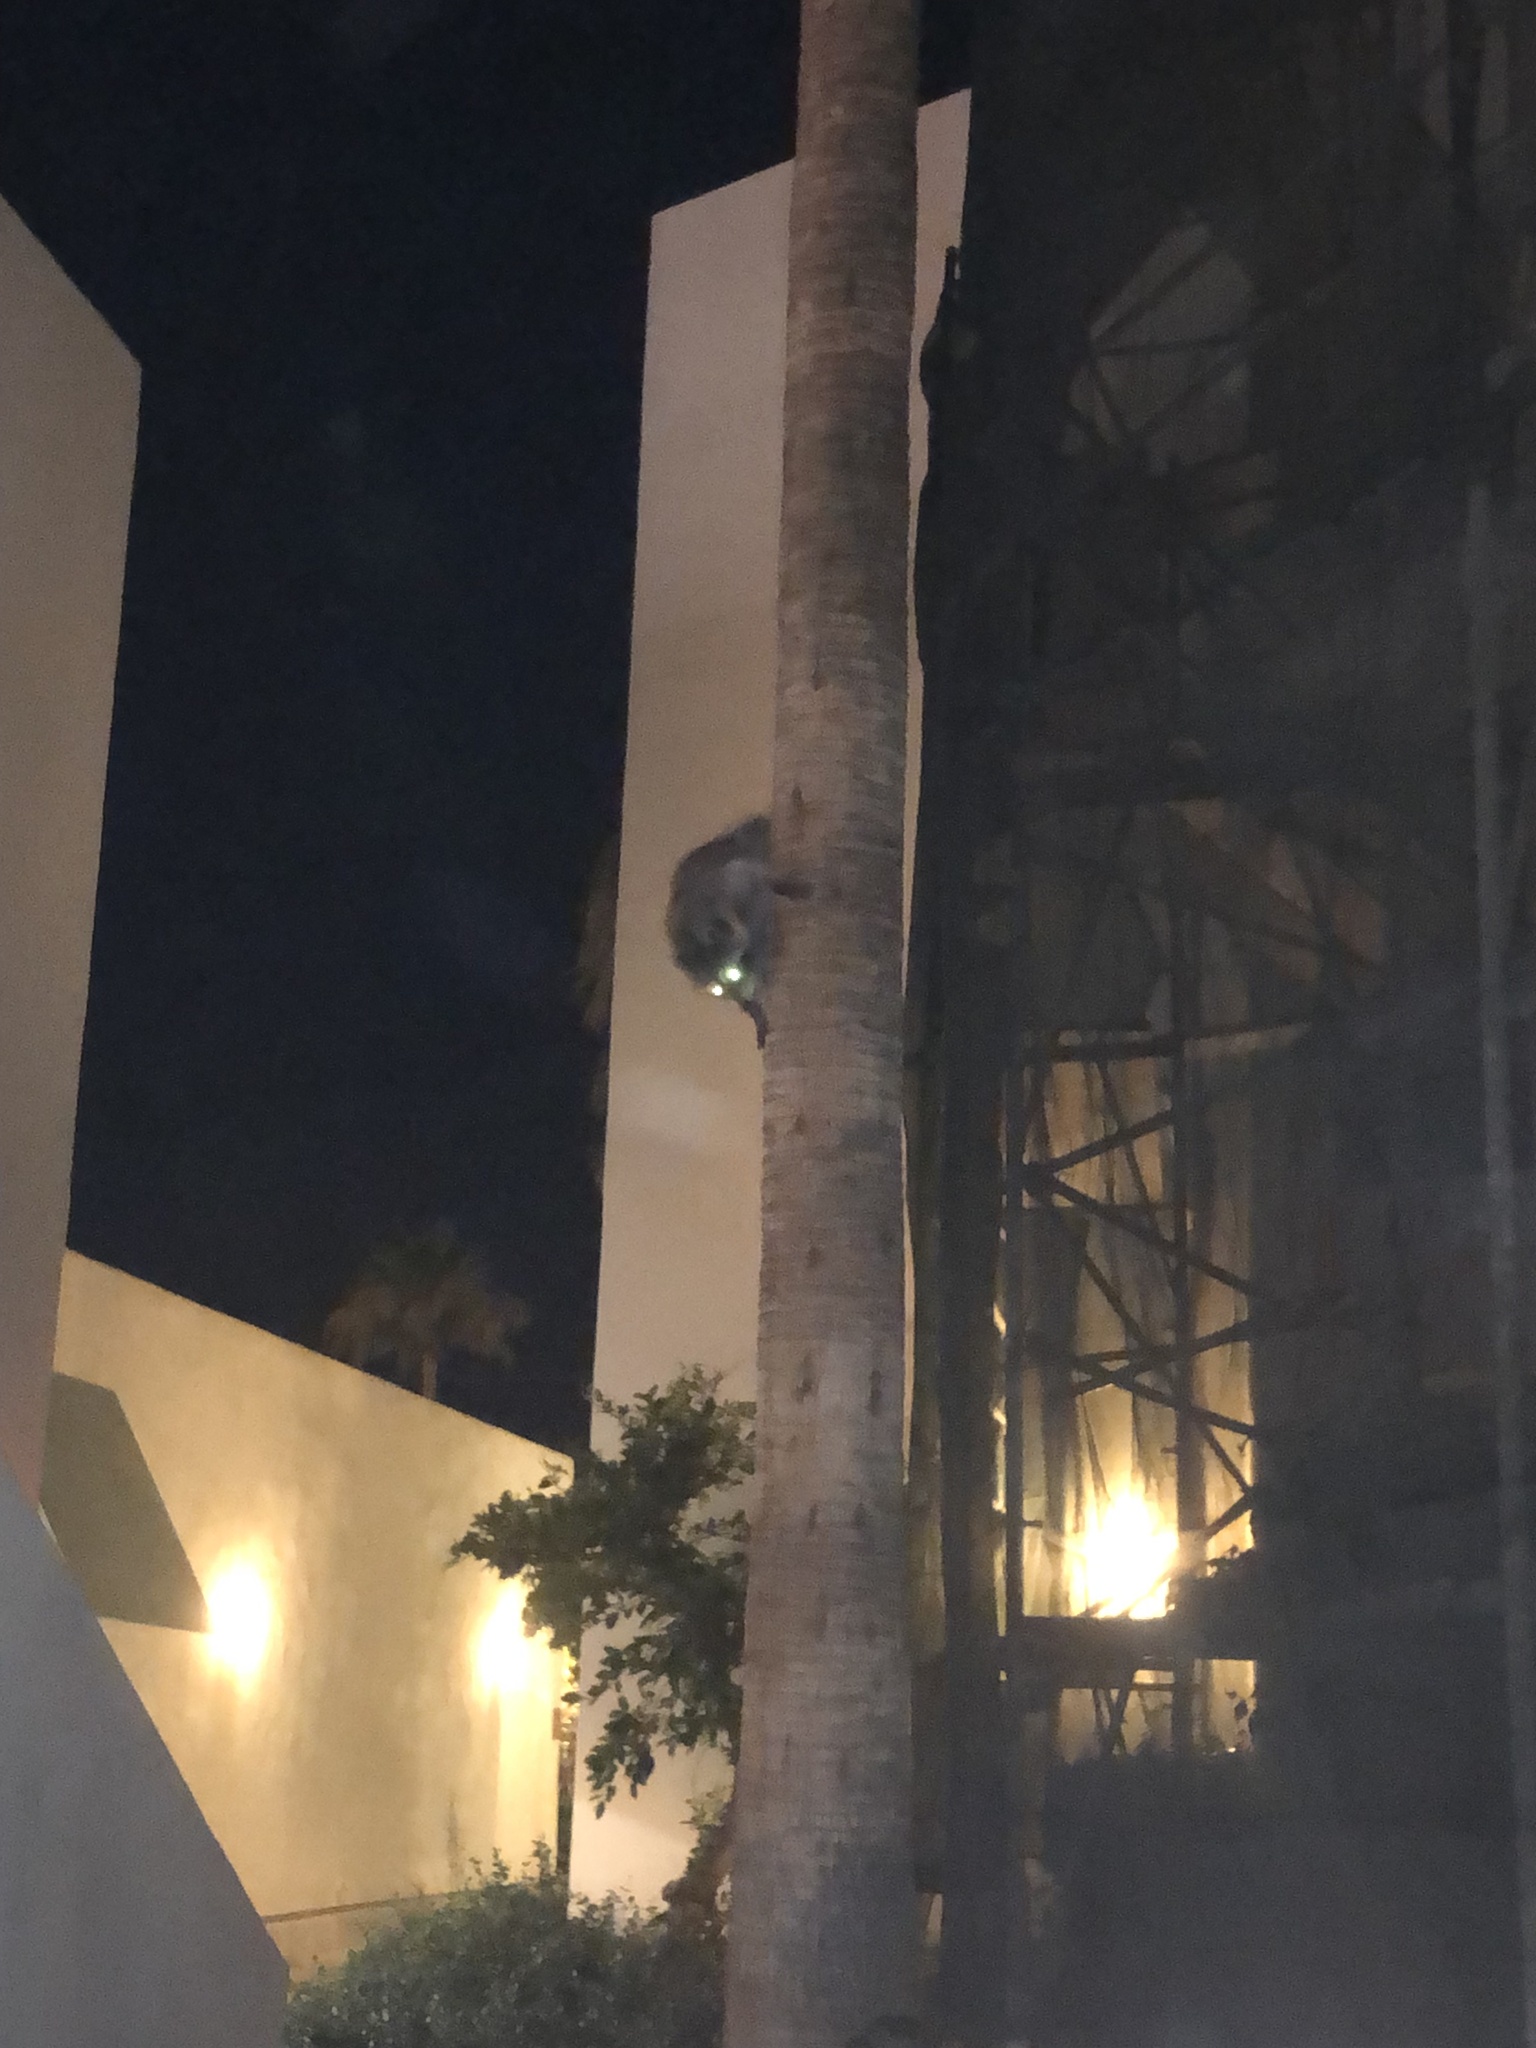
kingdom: Animalia
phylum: Chordata
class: Mammalia
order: Carnivora
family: Procyonidae
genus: Procyon
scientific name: Procyon lotor
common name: Raccoon
